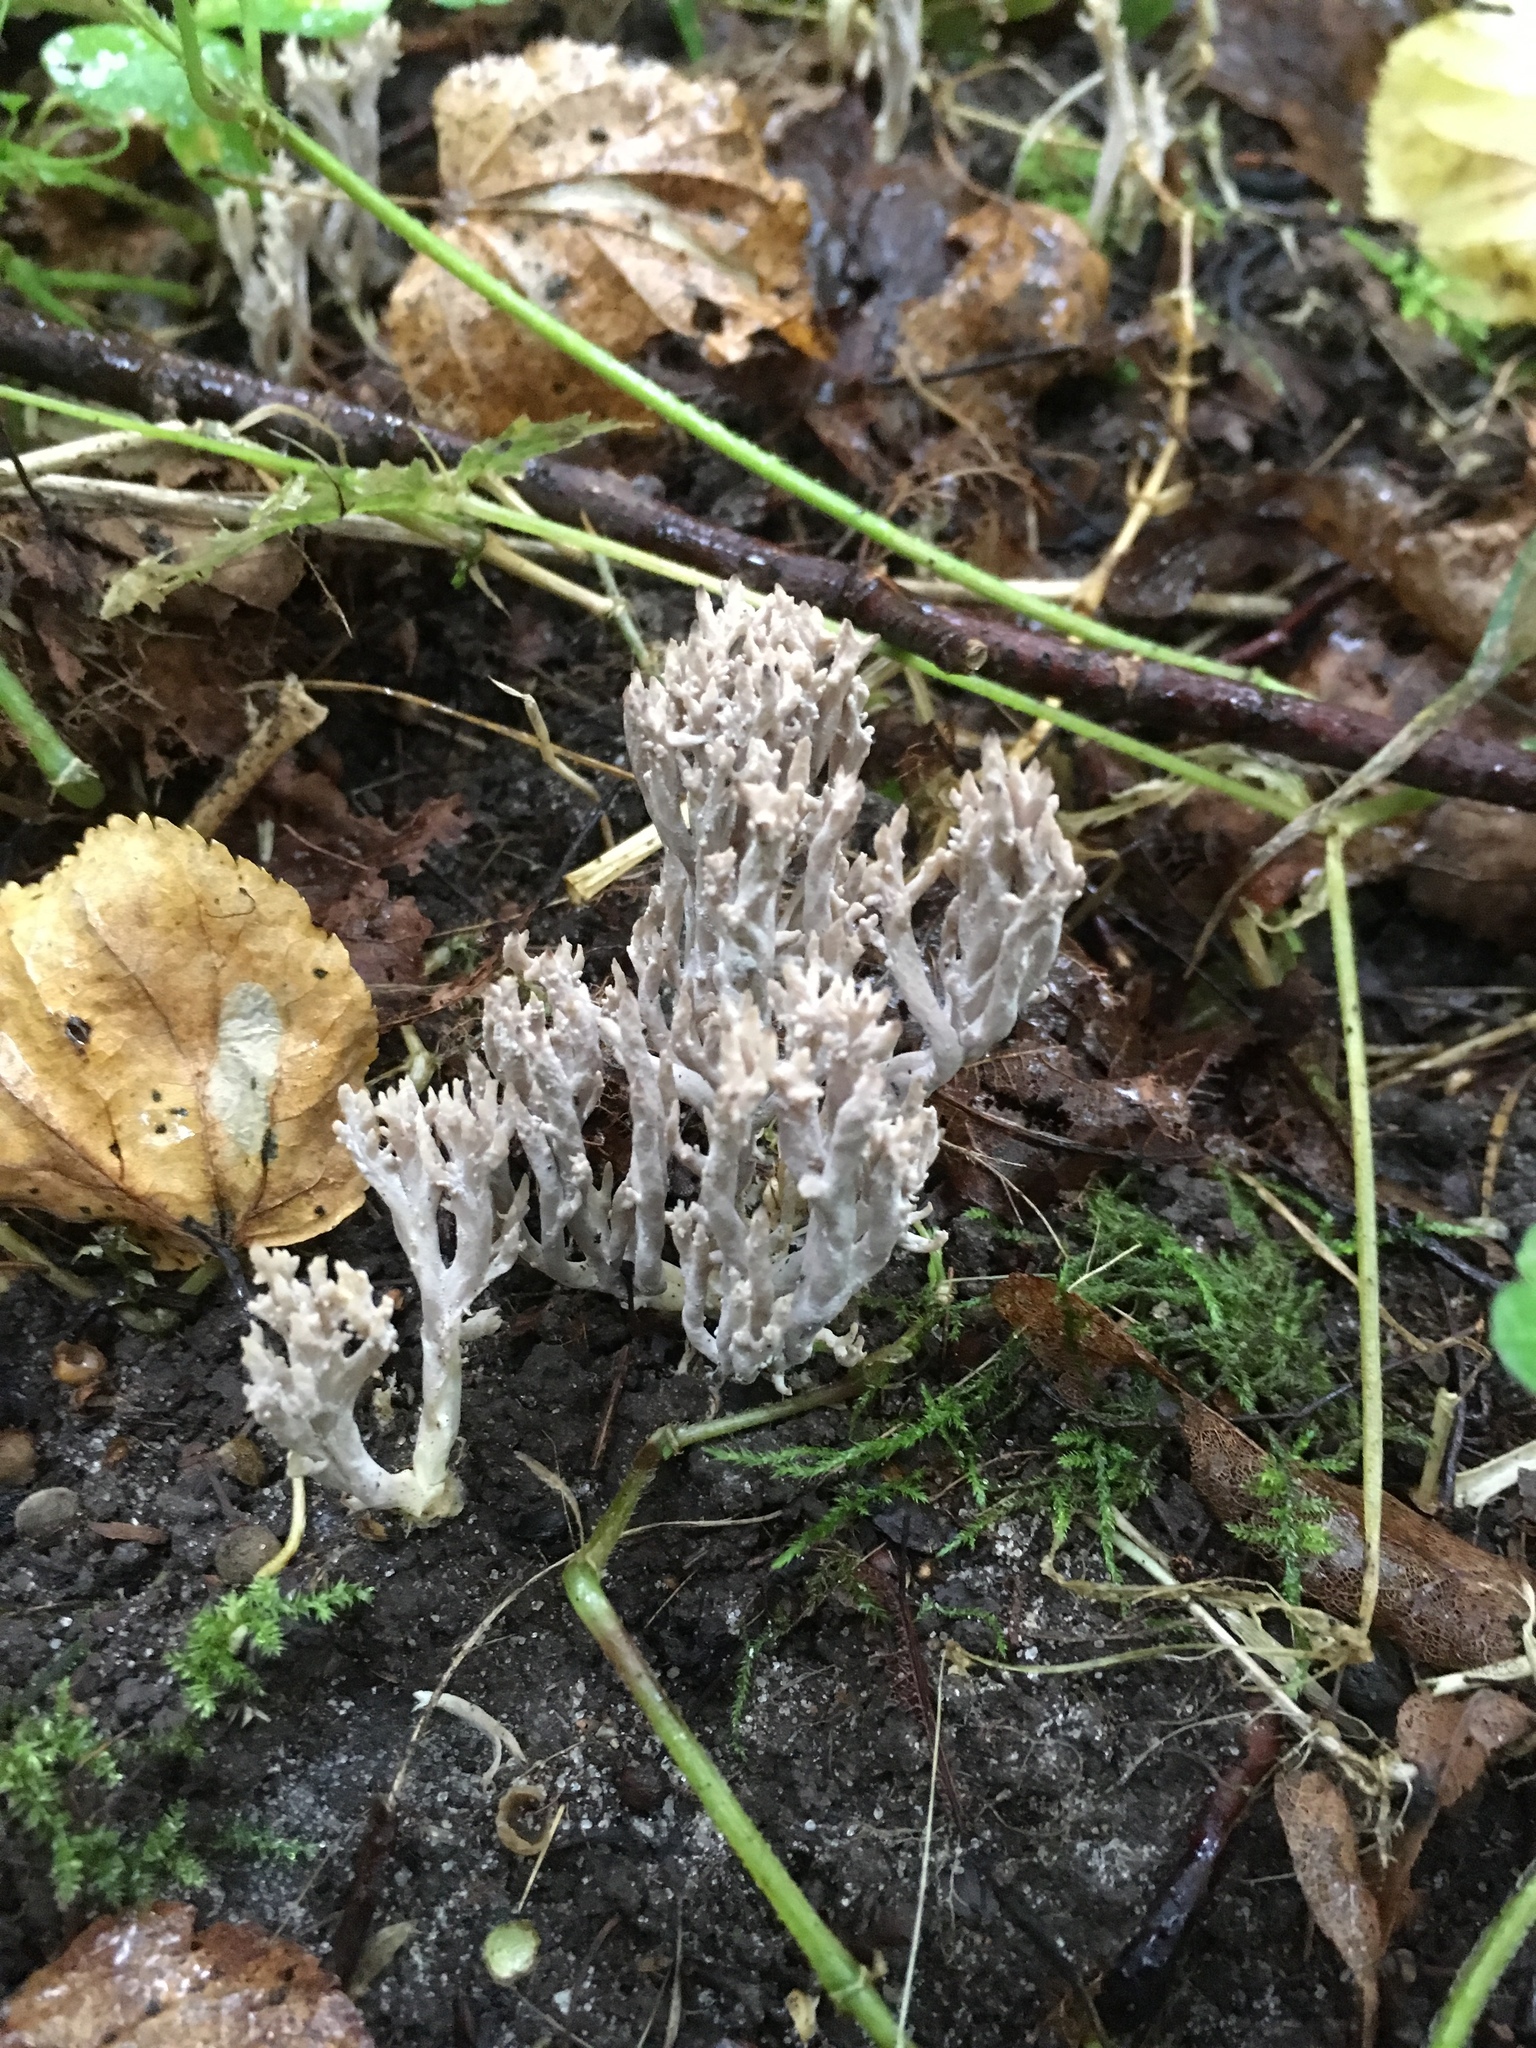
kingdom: Fungi
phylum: Basidiomycota
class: Agaricomycetes
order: Cantharellales
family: Hydnaceae
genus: Clavulina
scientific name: Clavulina coralloides
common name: Crested coral
